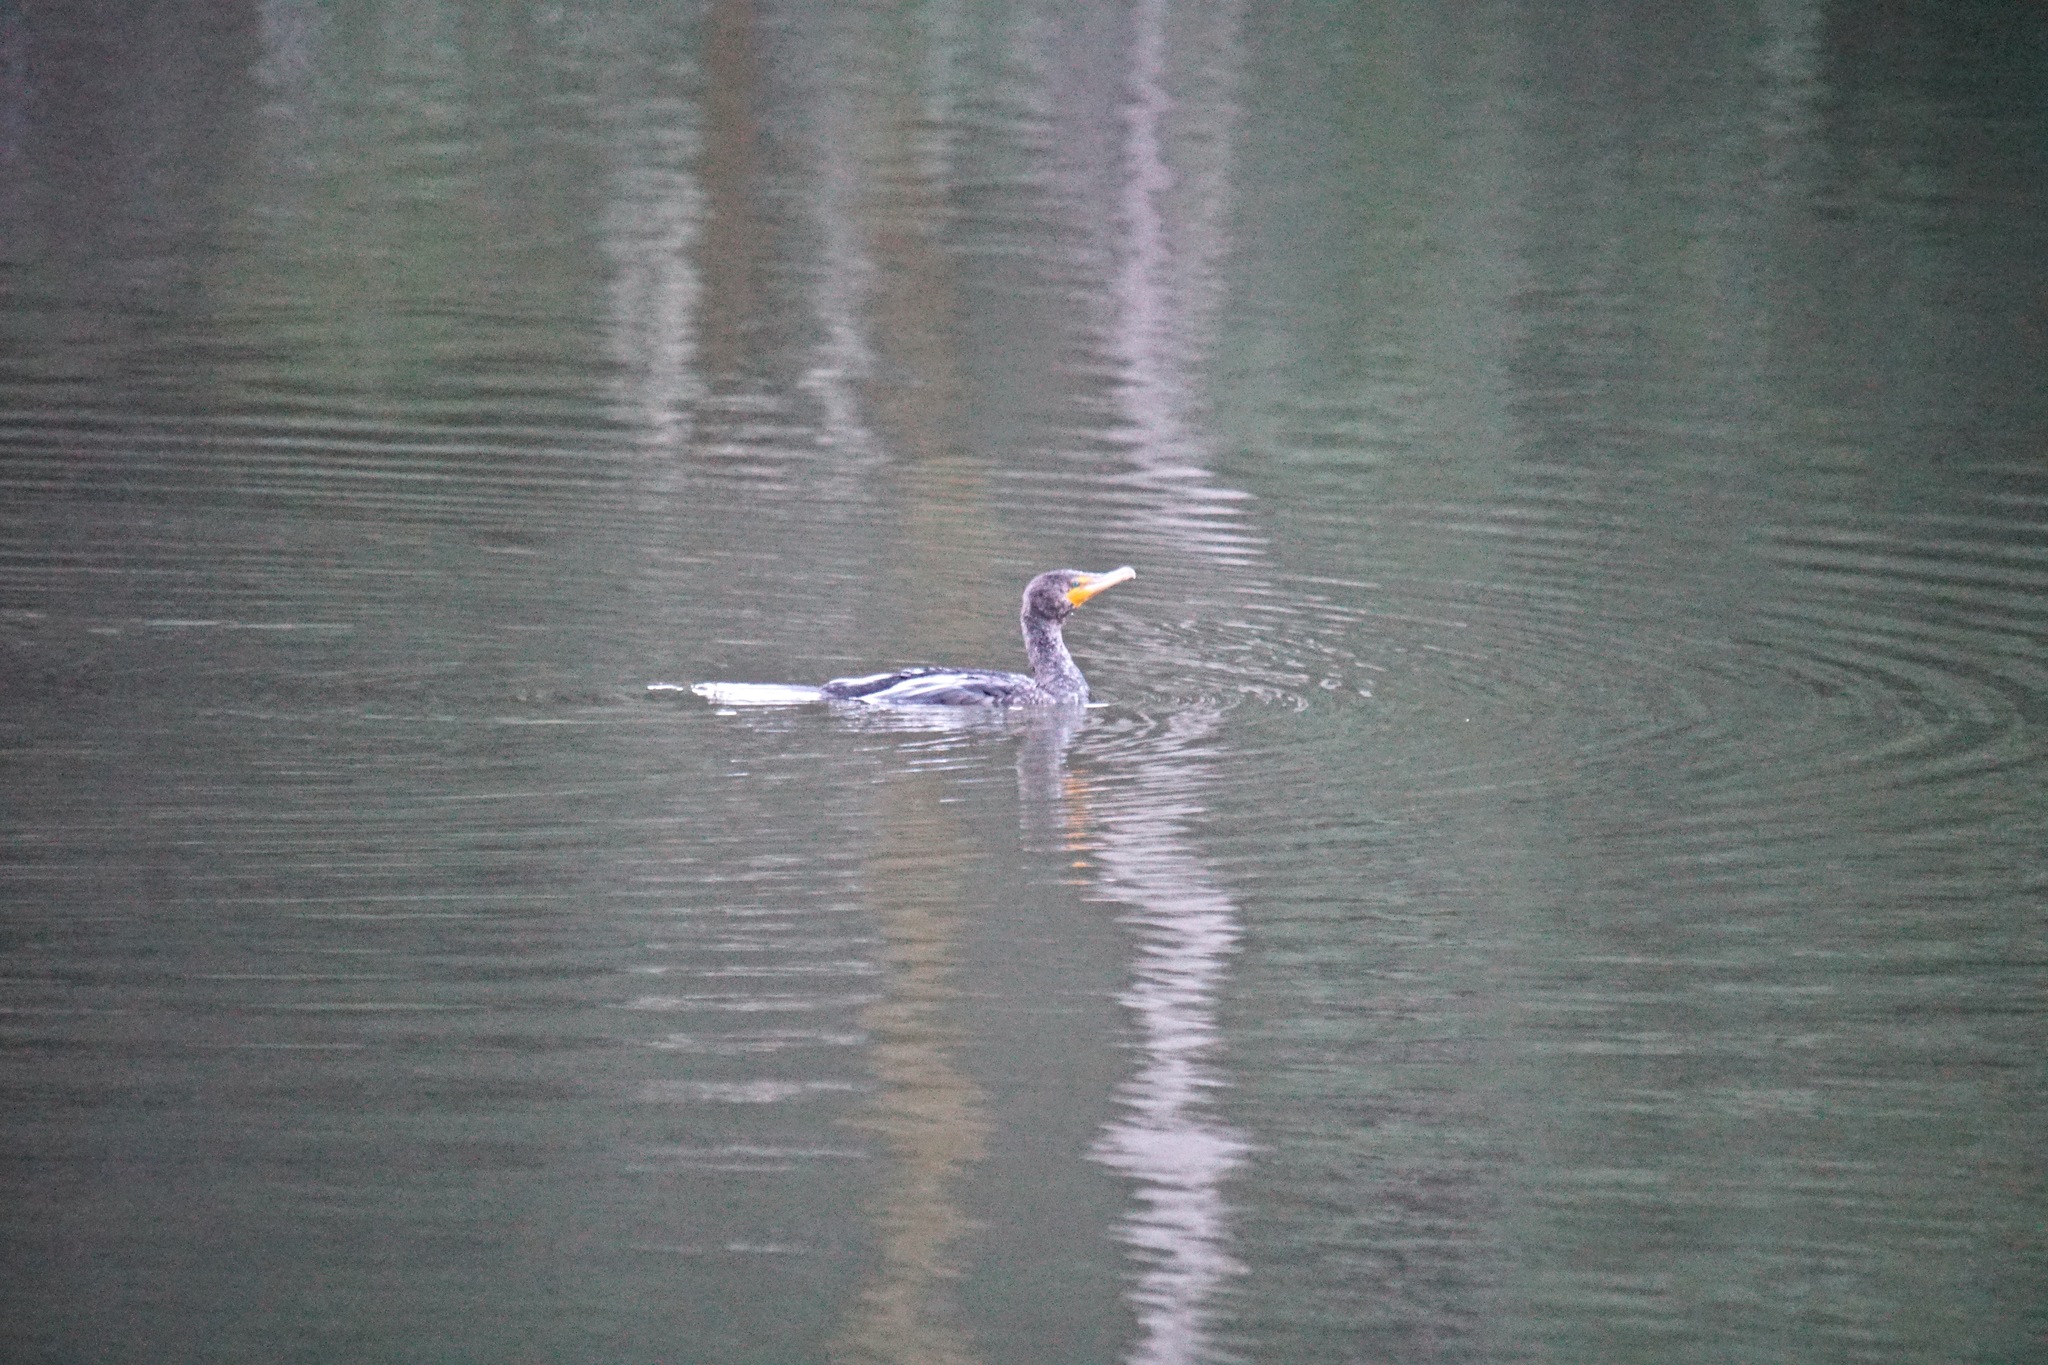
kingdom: Animalia
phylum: Chordata
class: Aves
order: Suliformes
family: Phalacrocoracidae
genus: Phalacrocorax
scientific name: Phalacrocorax auritus
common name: Double-crested cormorant
